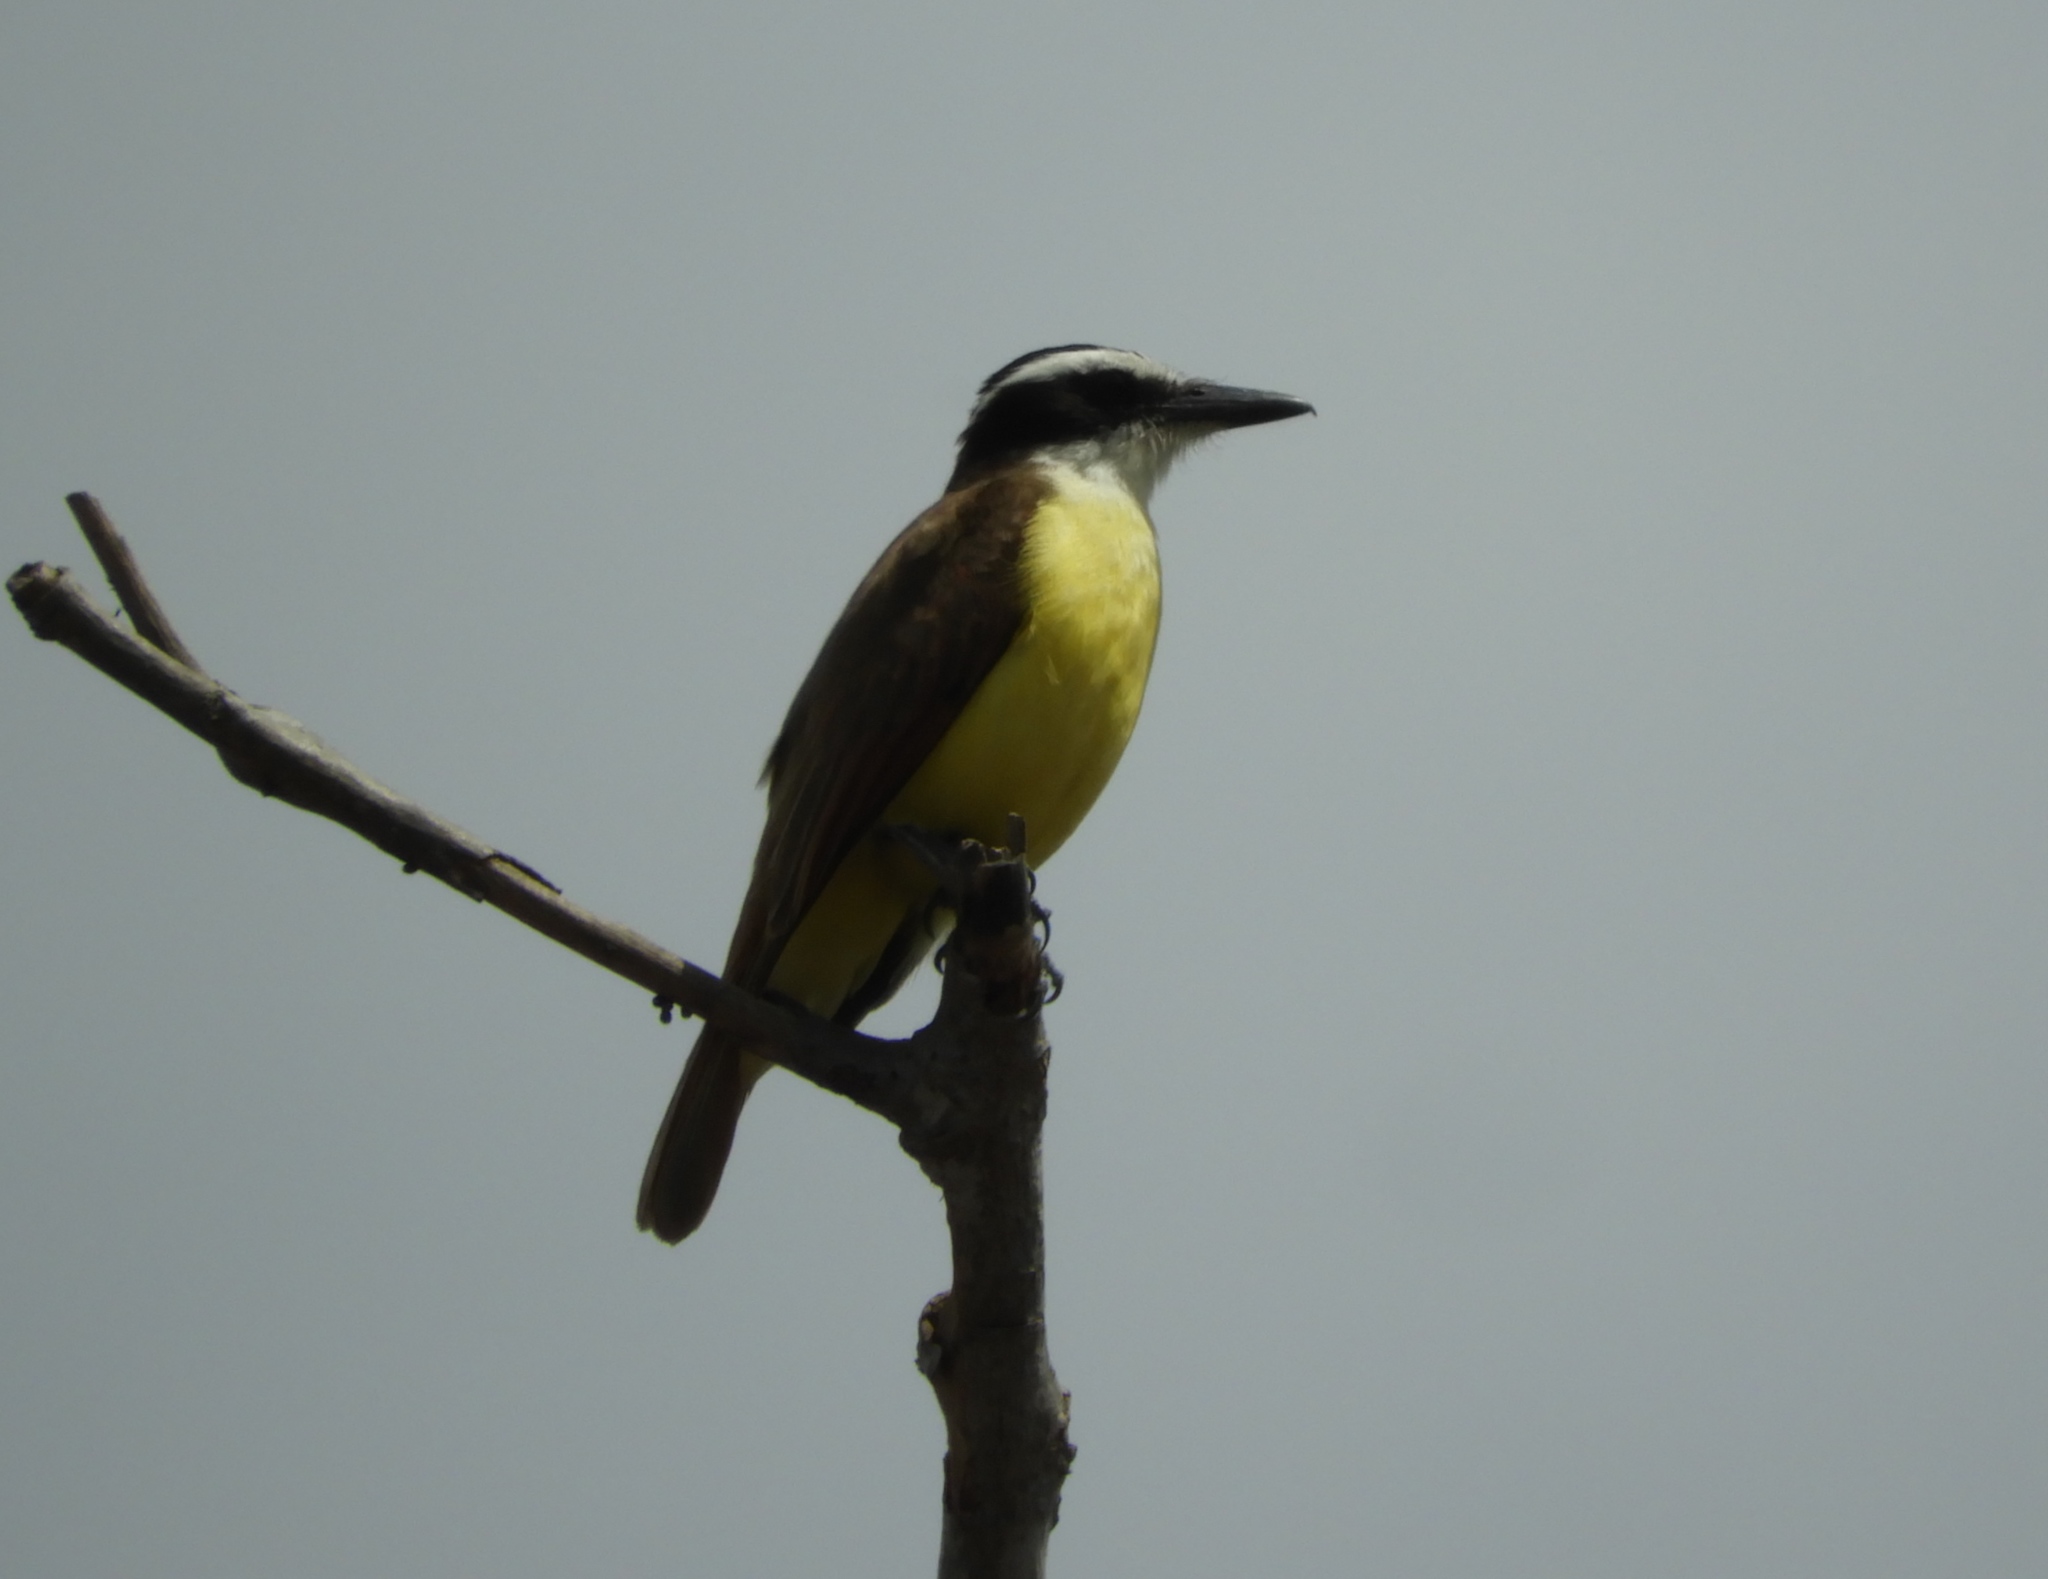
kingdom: Animalia
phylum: Chordata
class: Aves
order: Passeriformes
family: Tyrannidae
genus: Pitangus
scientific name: Pitangus sulphuratus
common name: Great kiskadee
